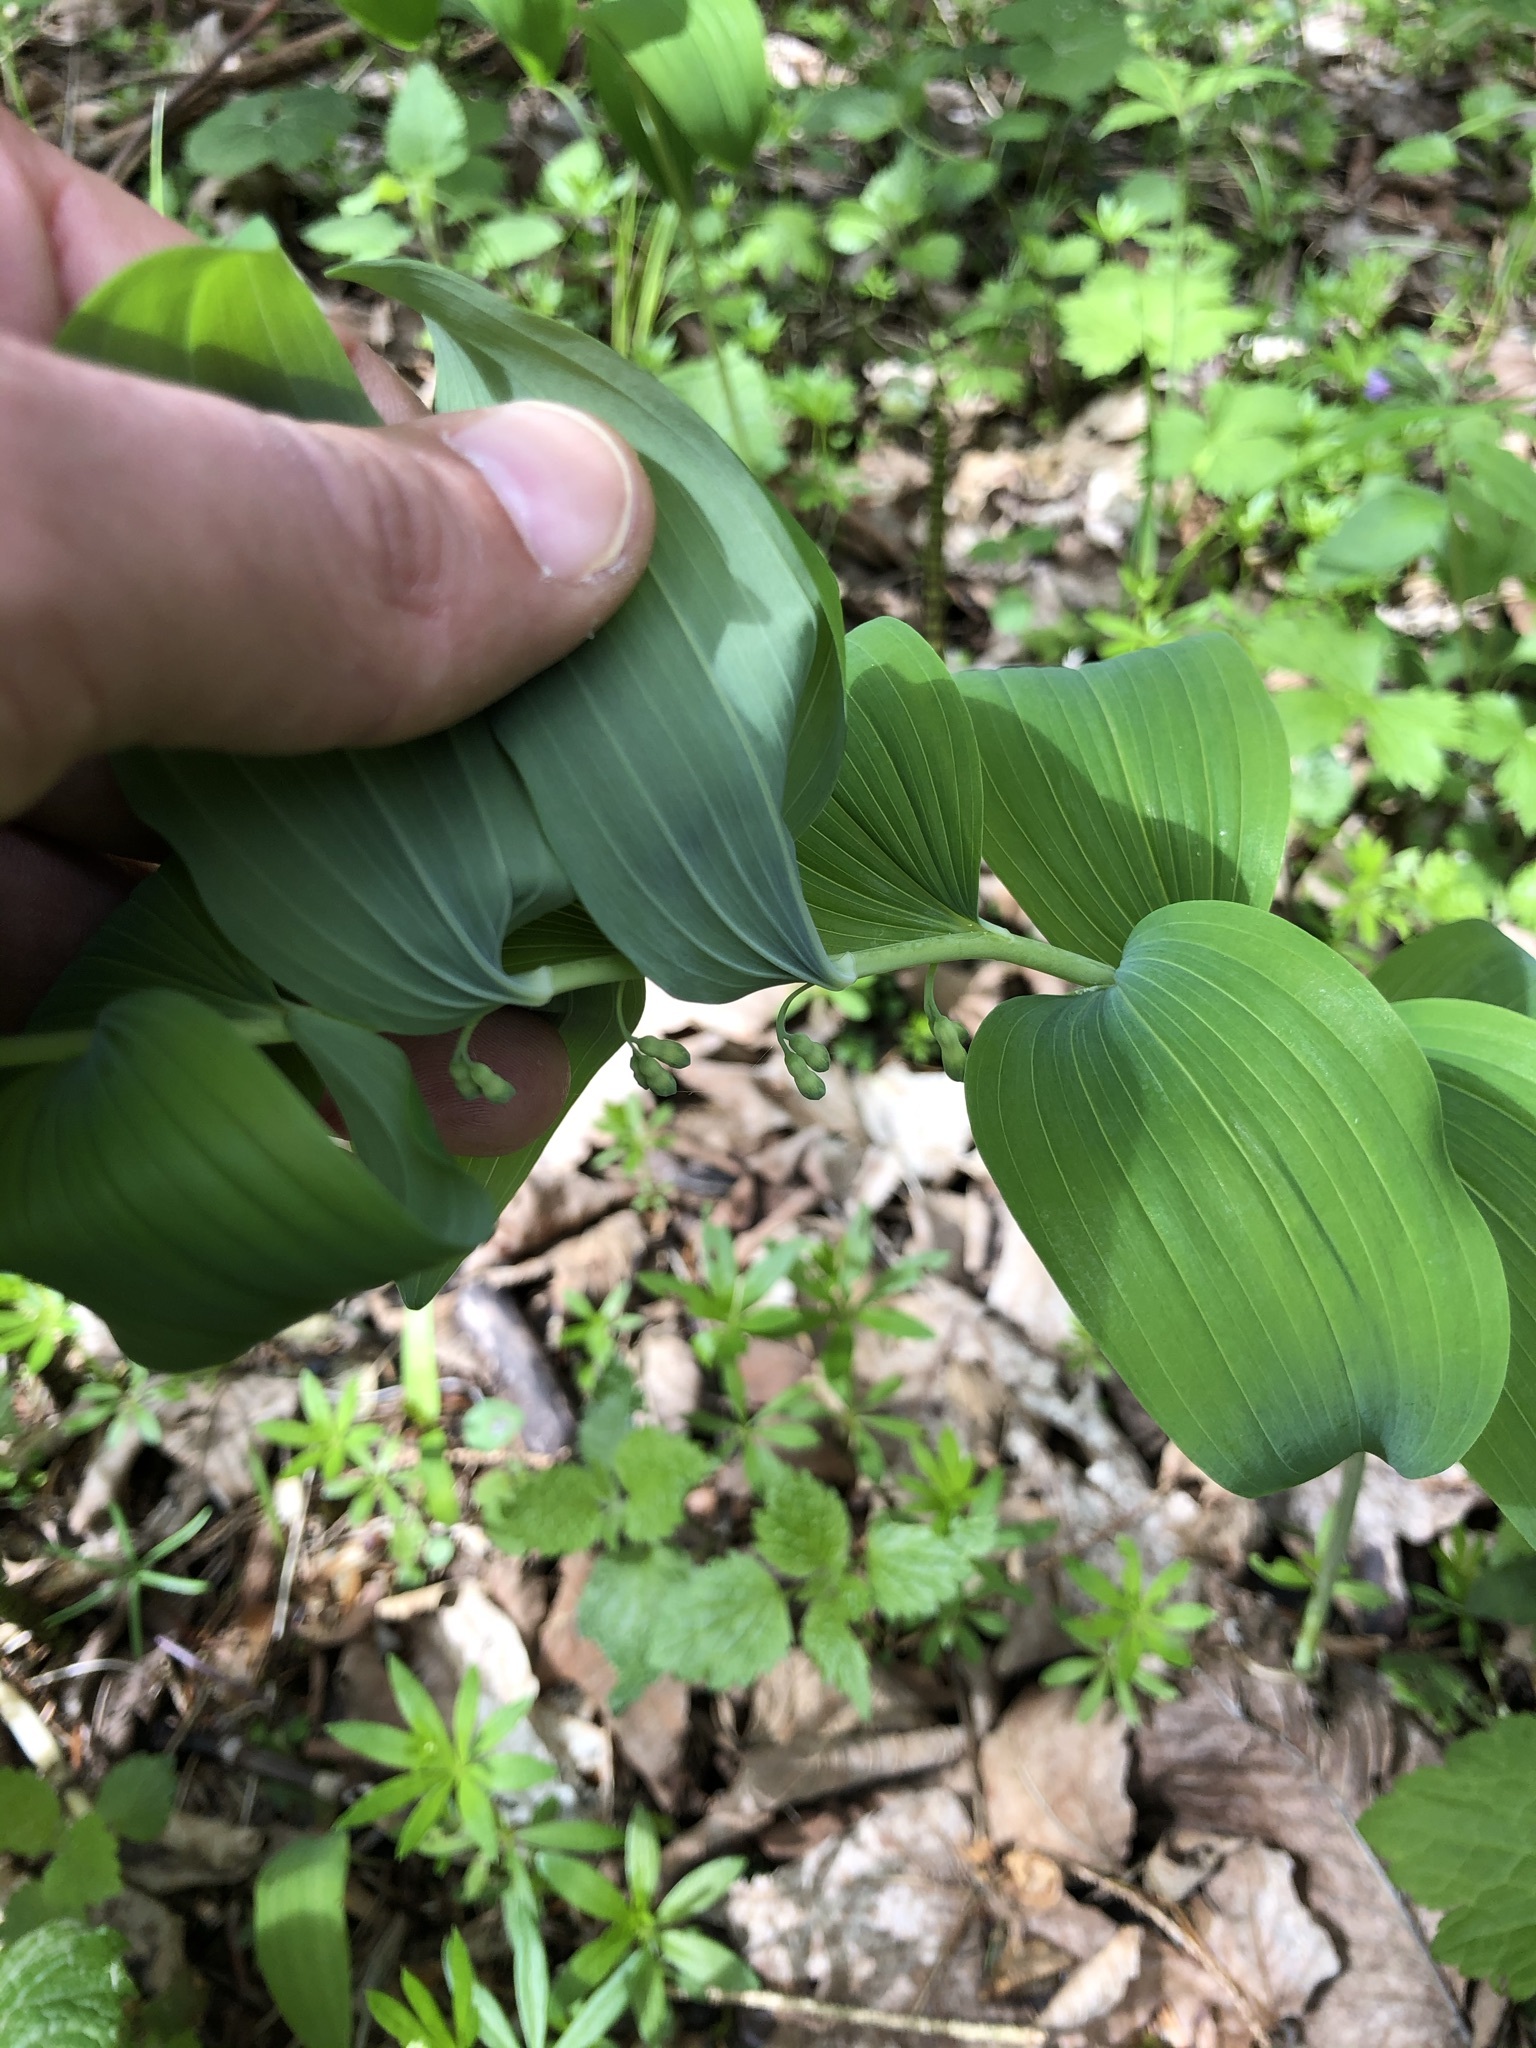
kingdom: Plantae
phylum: Tracheophyta
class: Liliopsida
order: Asparagales
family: Asparagaceae
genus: Polygonatum
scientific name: Polygonatum multiflorum
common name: Solomon's-seal
